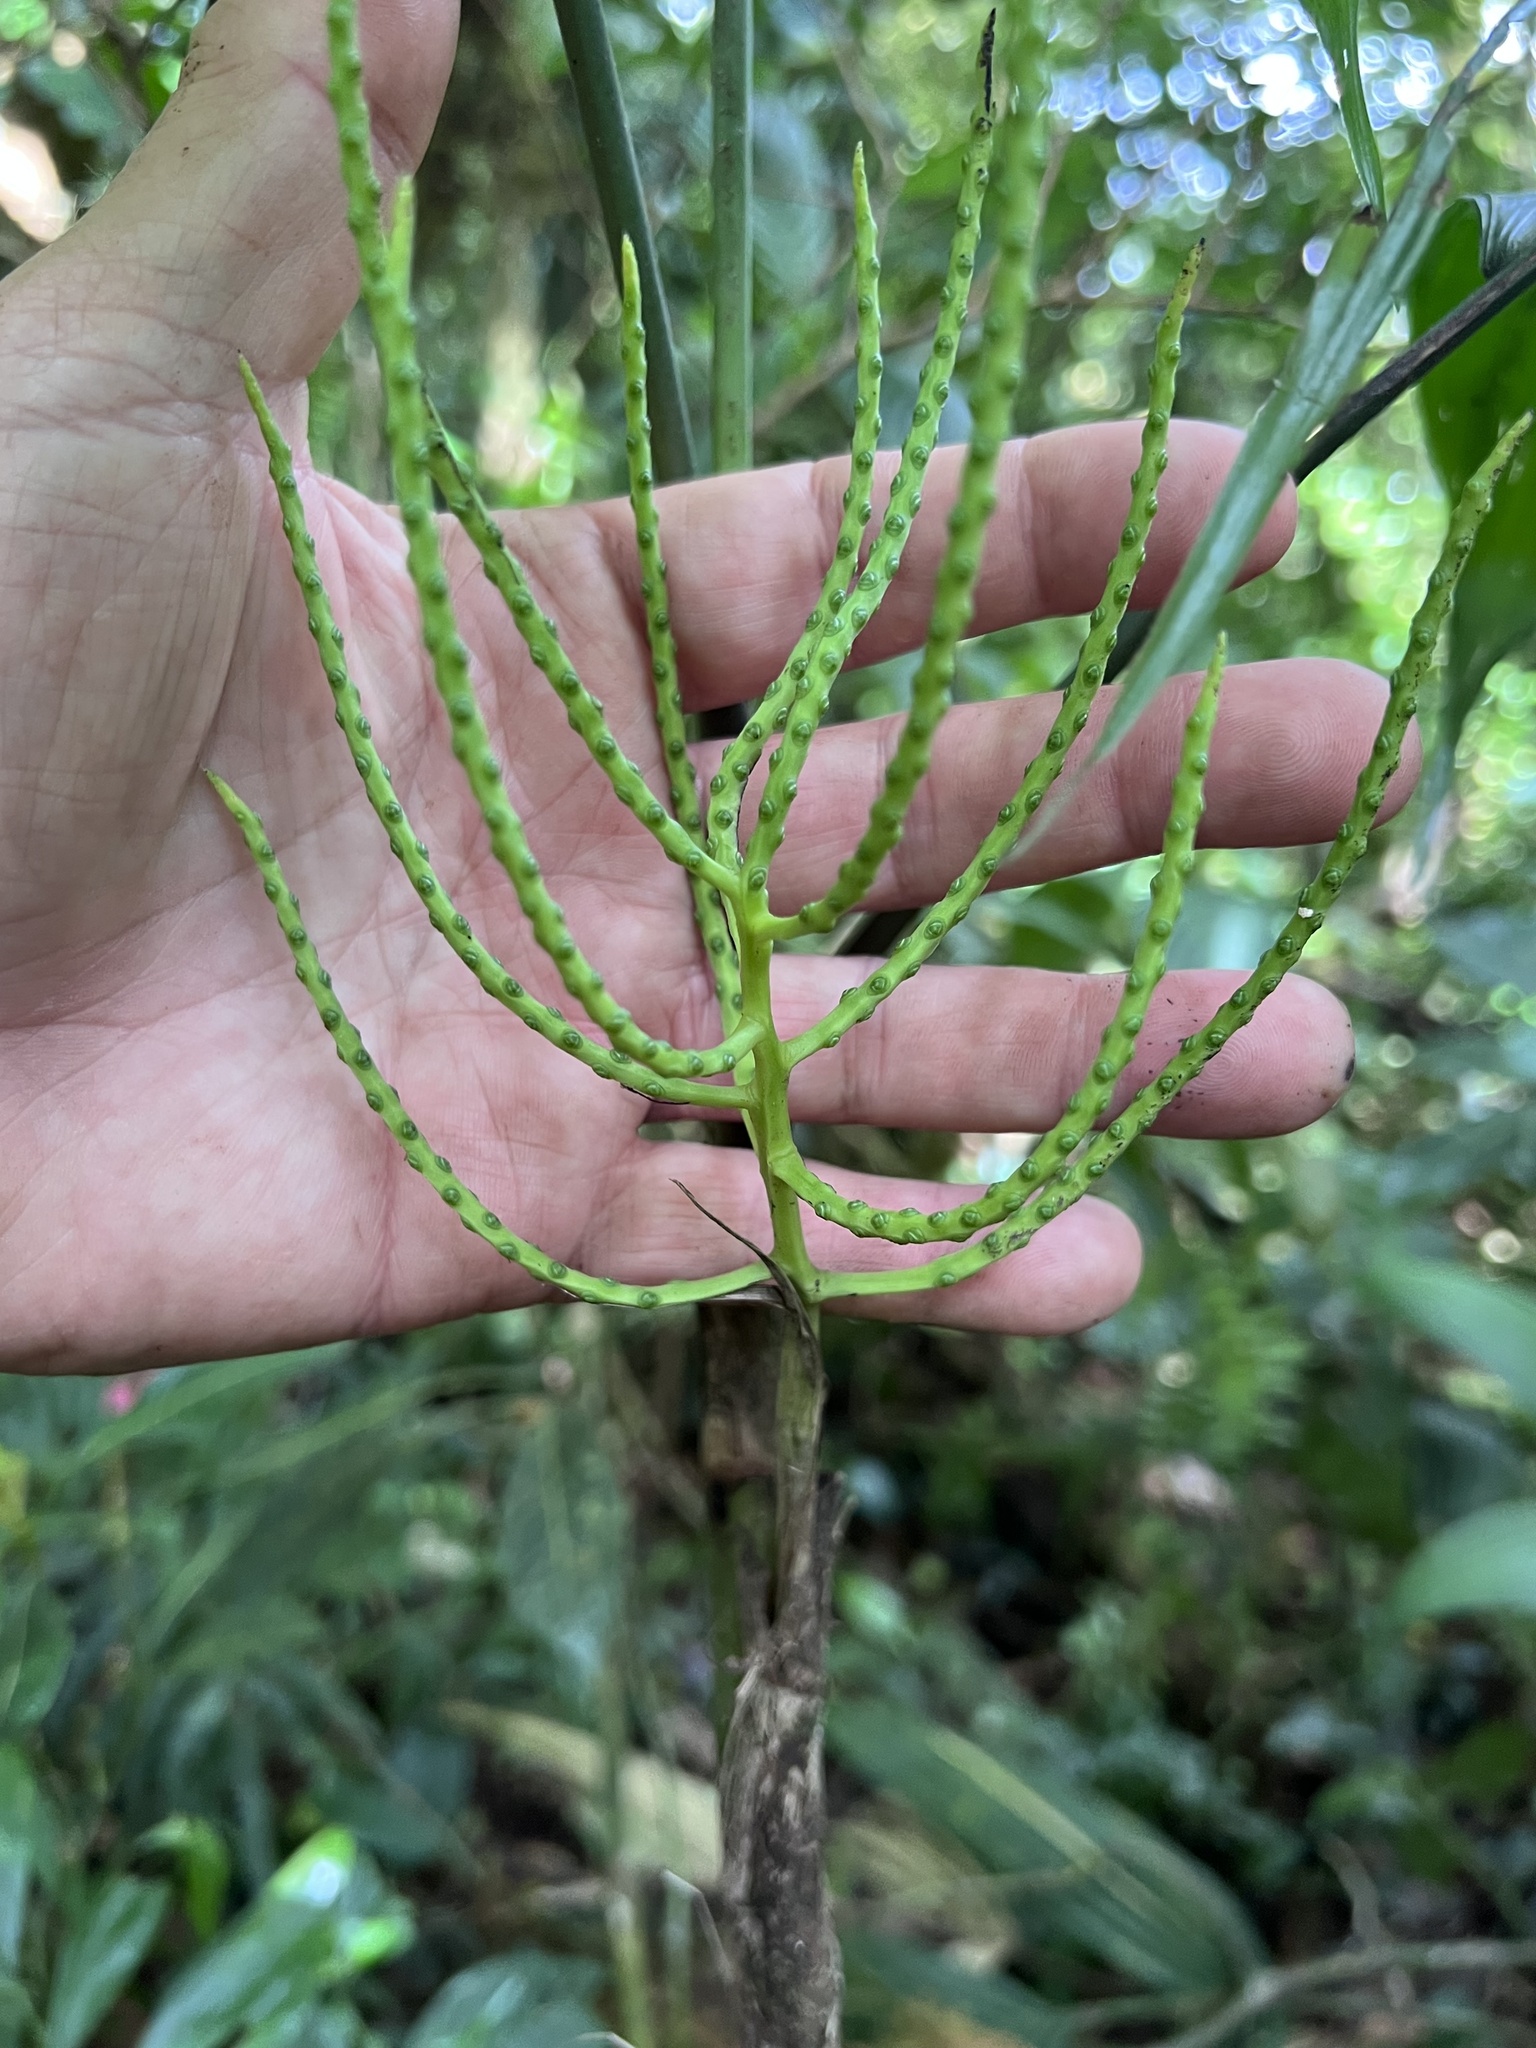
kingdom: Plantae
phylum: Tracheophyta
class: Liliopsida
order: Arecales
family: Arecaceae
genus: Chamaedorea
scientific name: Chamaedorea tepejilote
